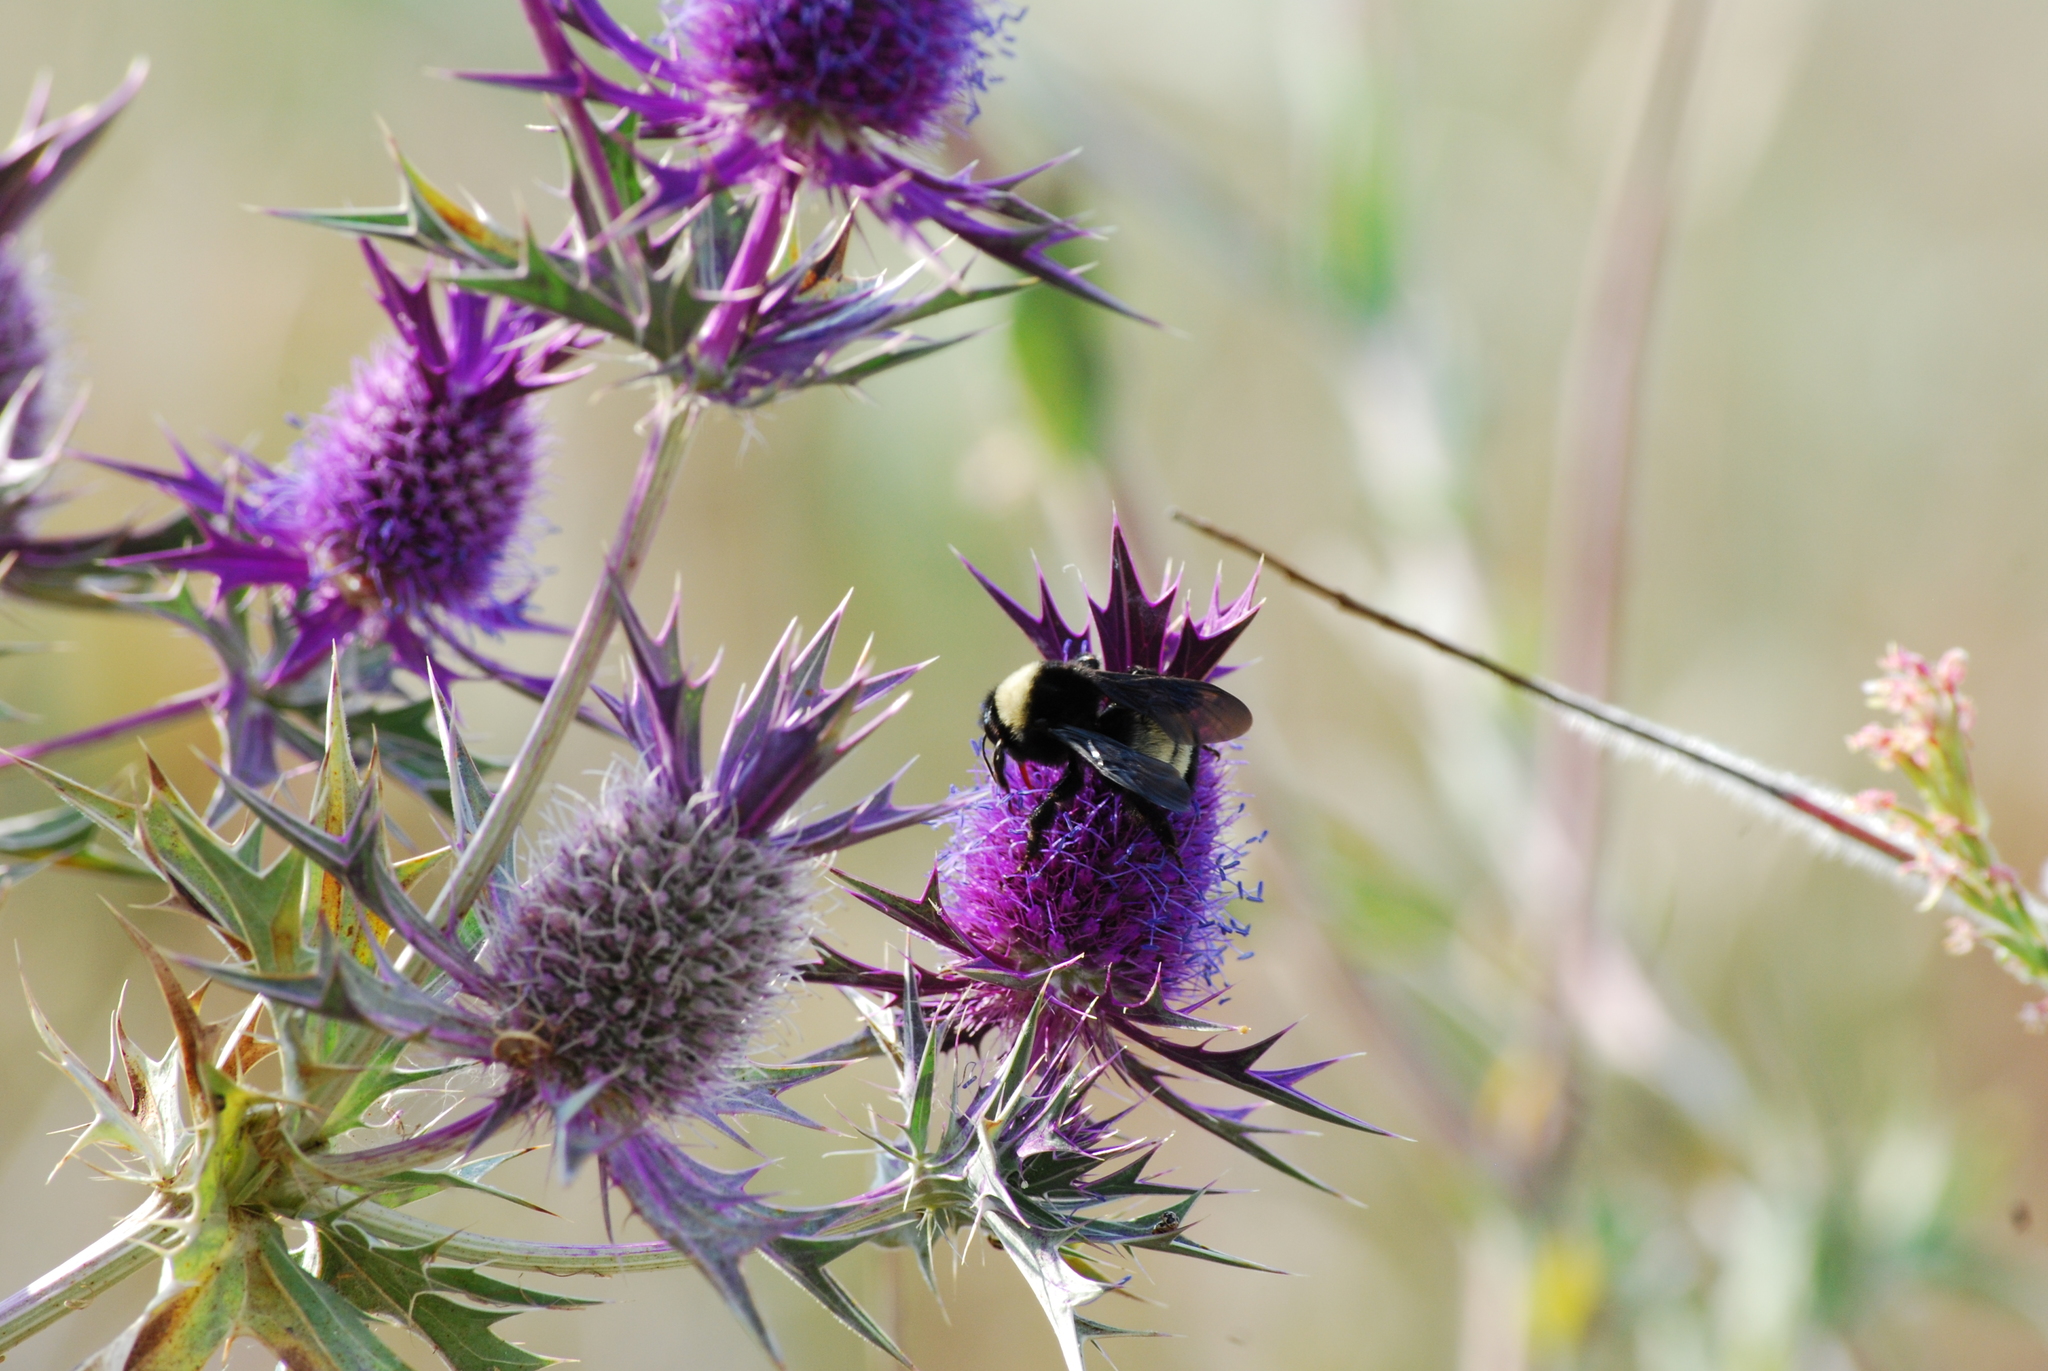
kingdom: Animalia
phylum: Arthropoda
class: Insecta
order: Hymenoptera
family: Apidae
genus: Xylocopa
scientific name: Xylocopa virginica
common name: Carpenter bee
